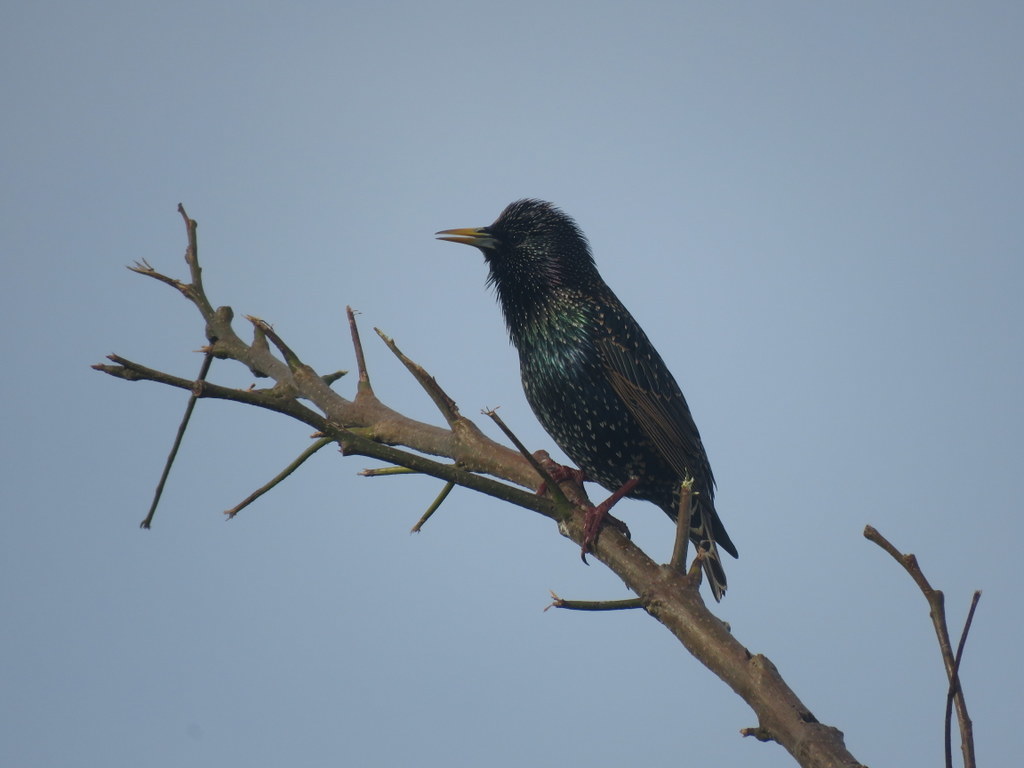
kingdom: Animalia
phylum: Chordata
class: Aves
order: Passeriformes
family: Sturnidae
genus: Sturnus
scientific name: Sturnus vulgaris
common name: Common starling
